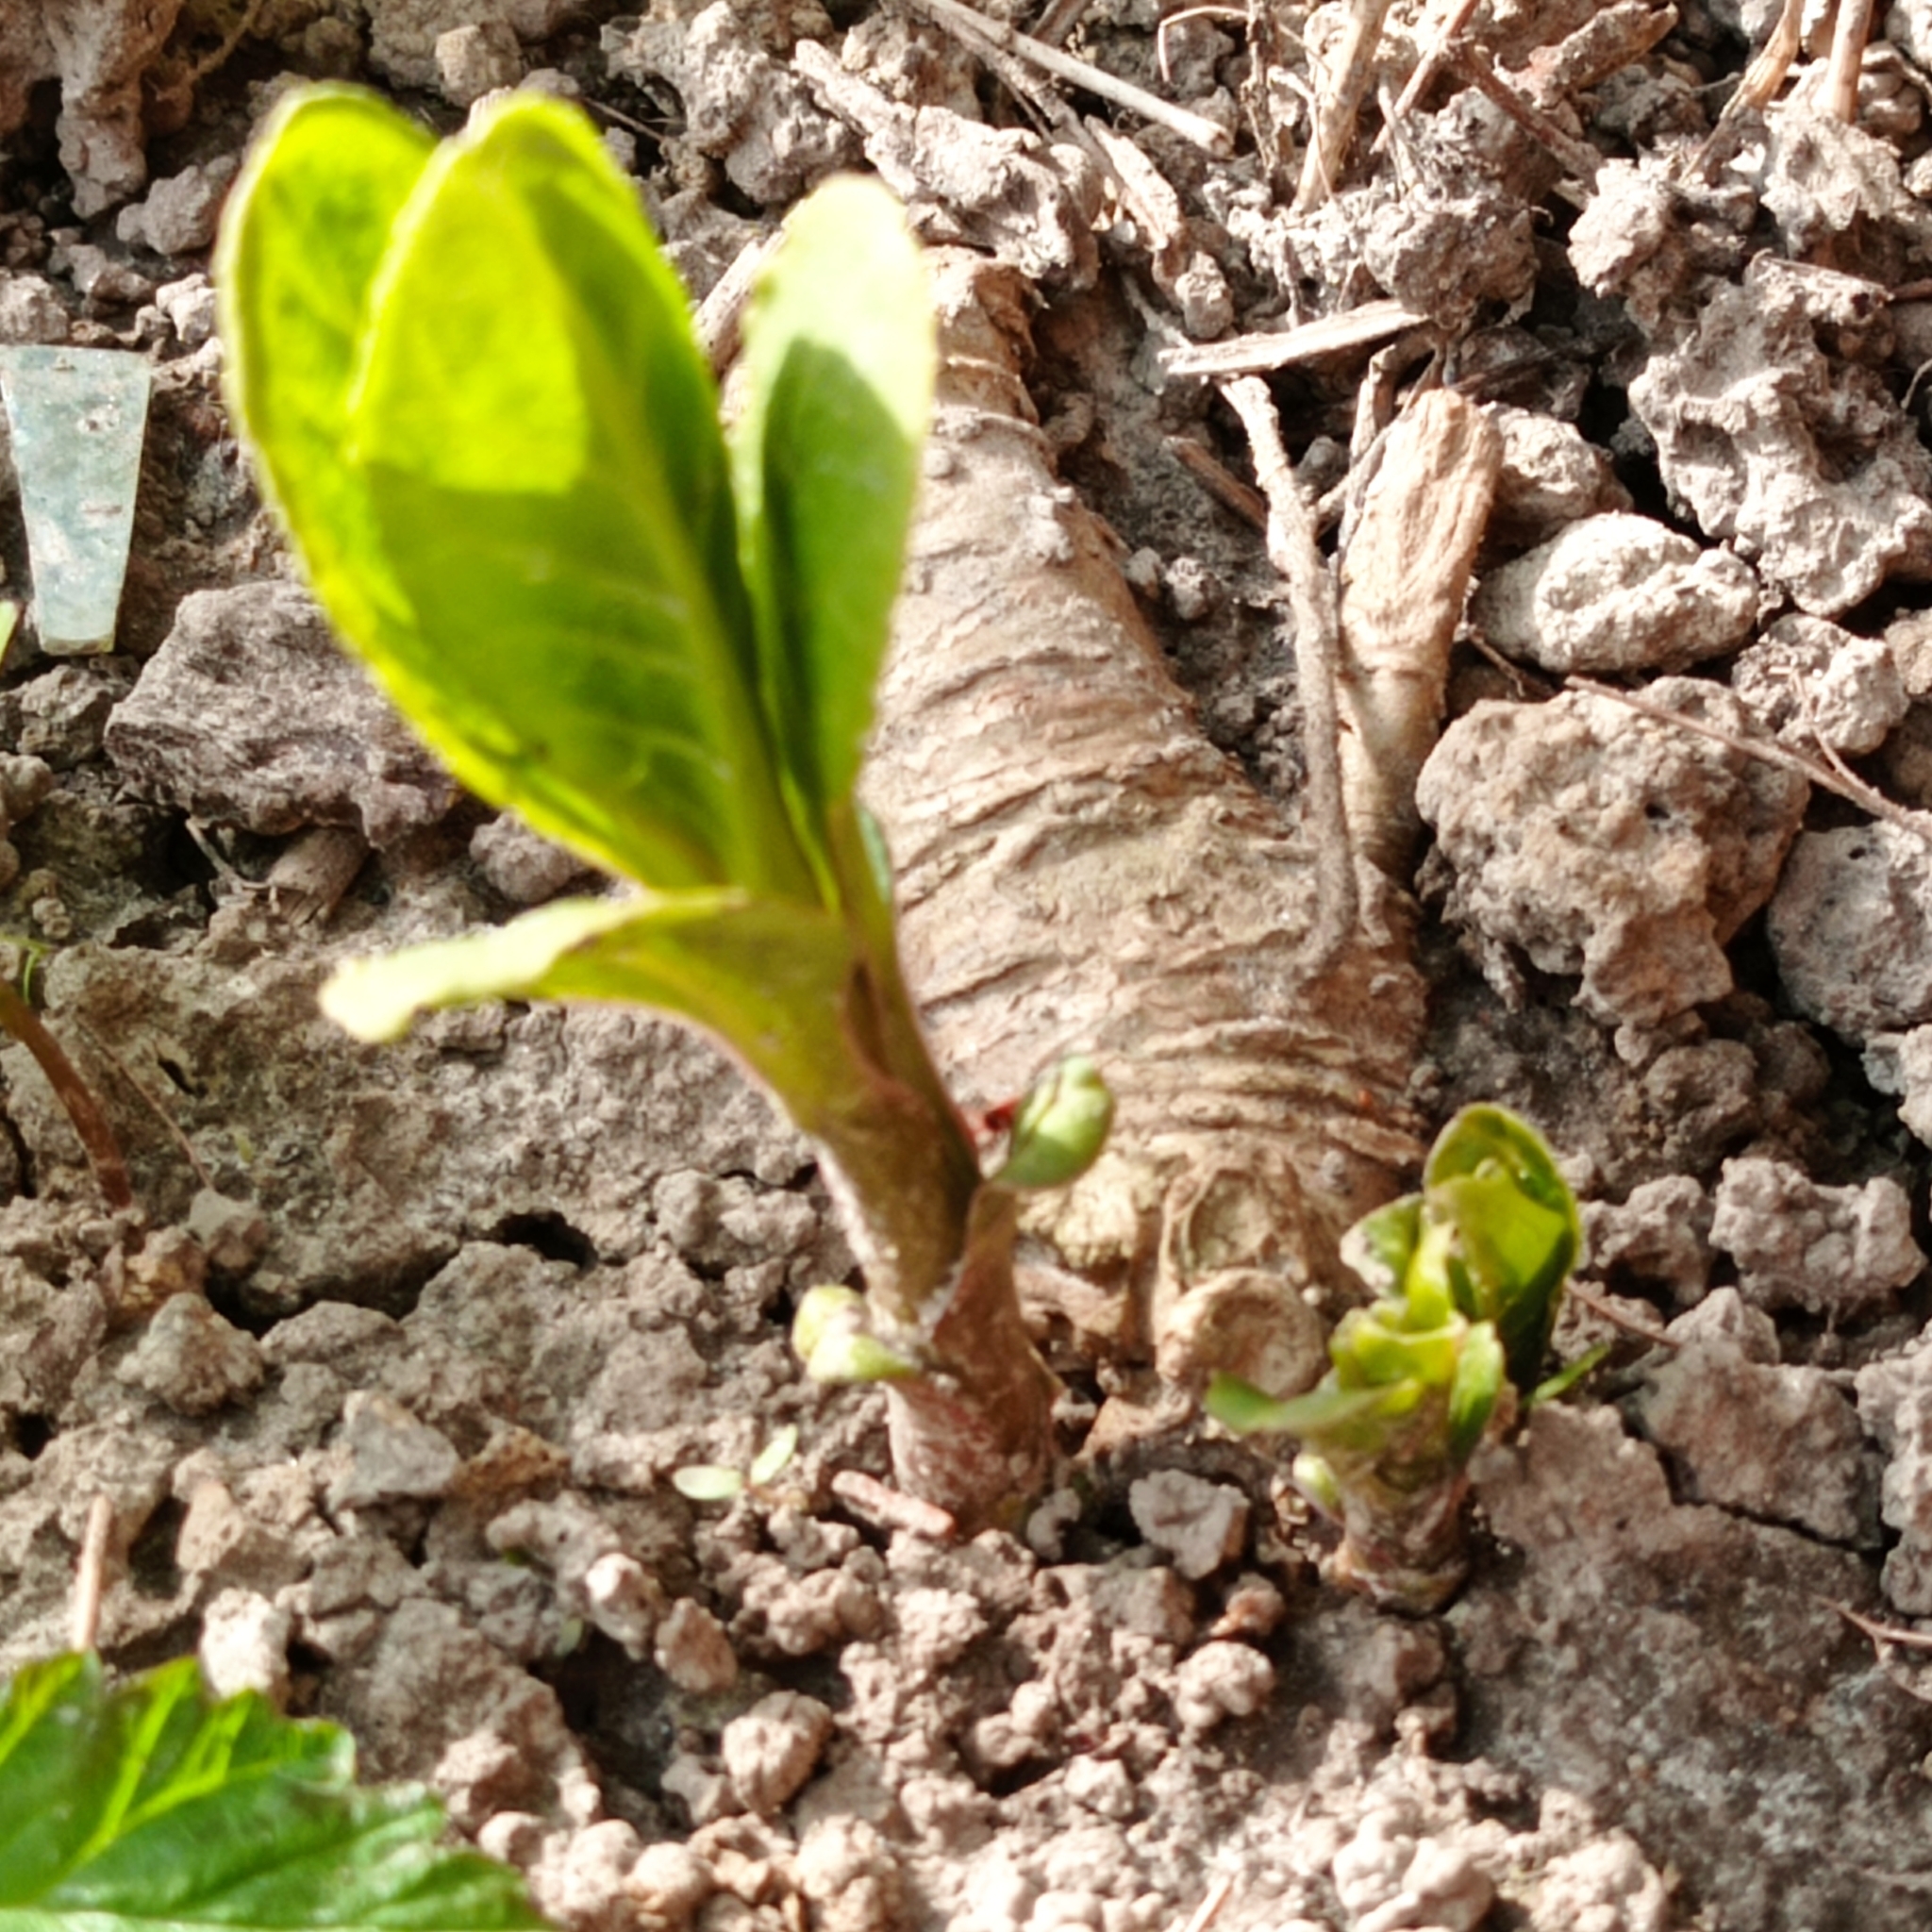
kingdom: Plantae
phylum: Tracheophyta
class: Magnoliopsida
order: Caryophyllales
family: Phytolaccaceae
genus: Phytolacca
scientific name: Phytolacca acinosa
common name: Indian pokeweed
